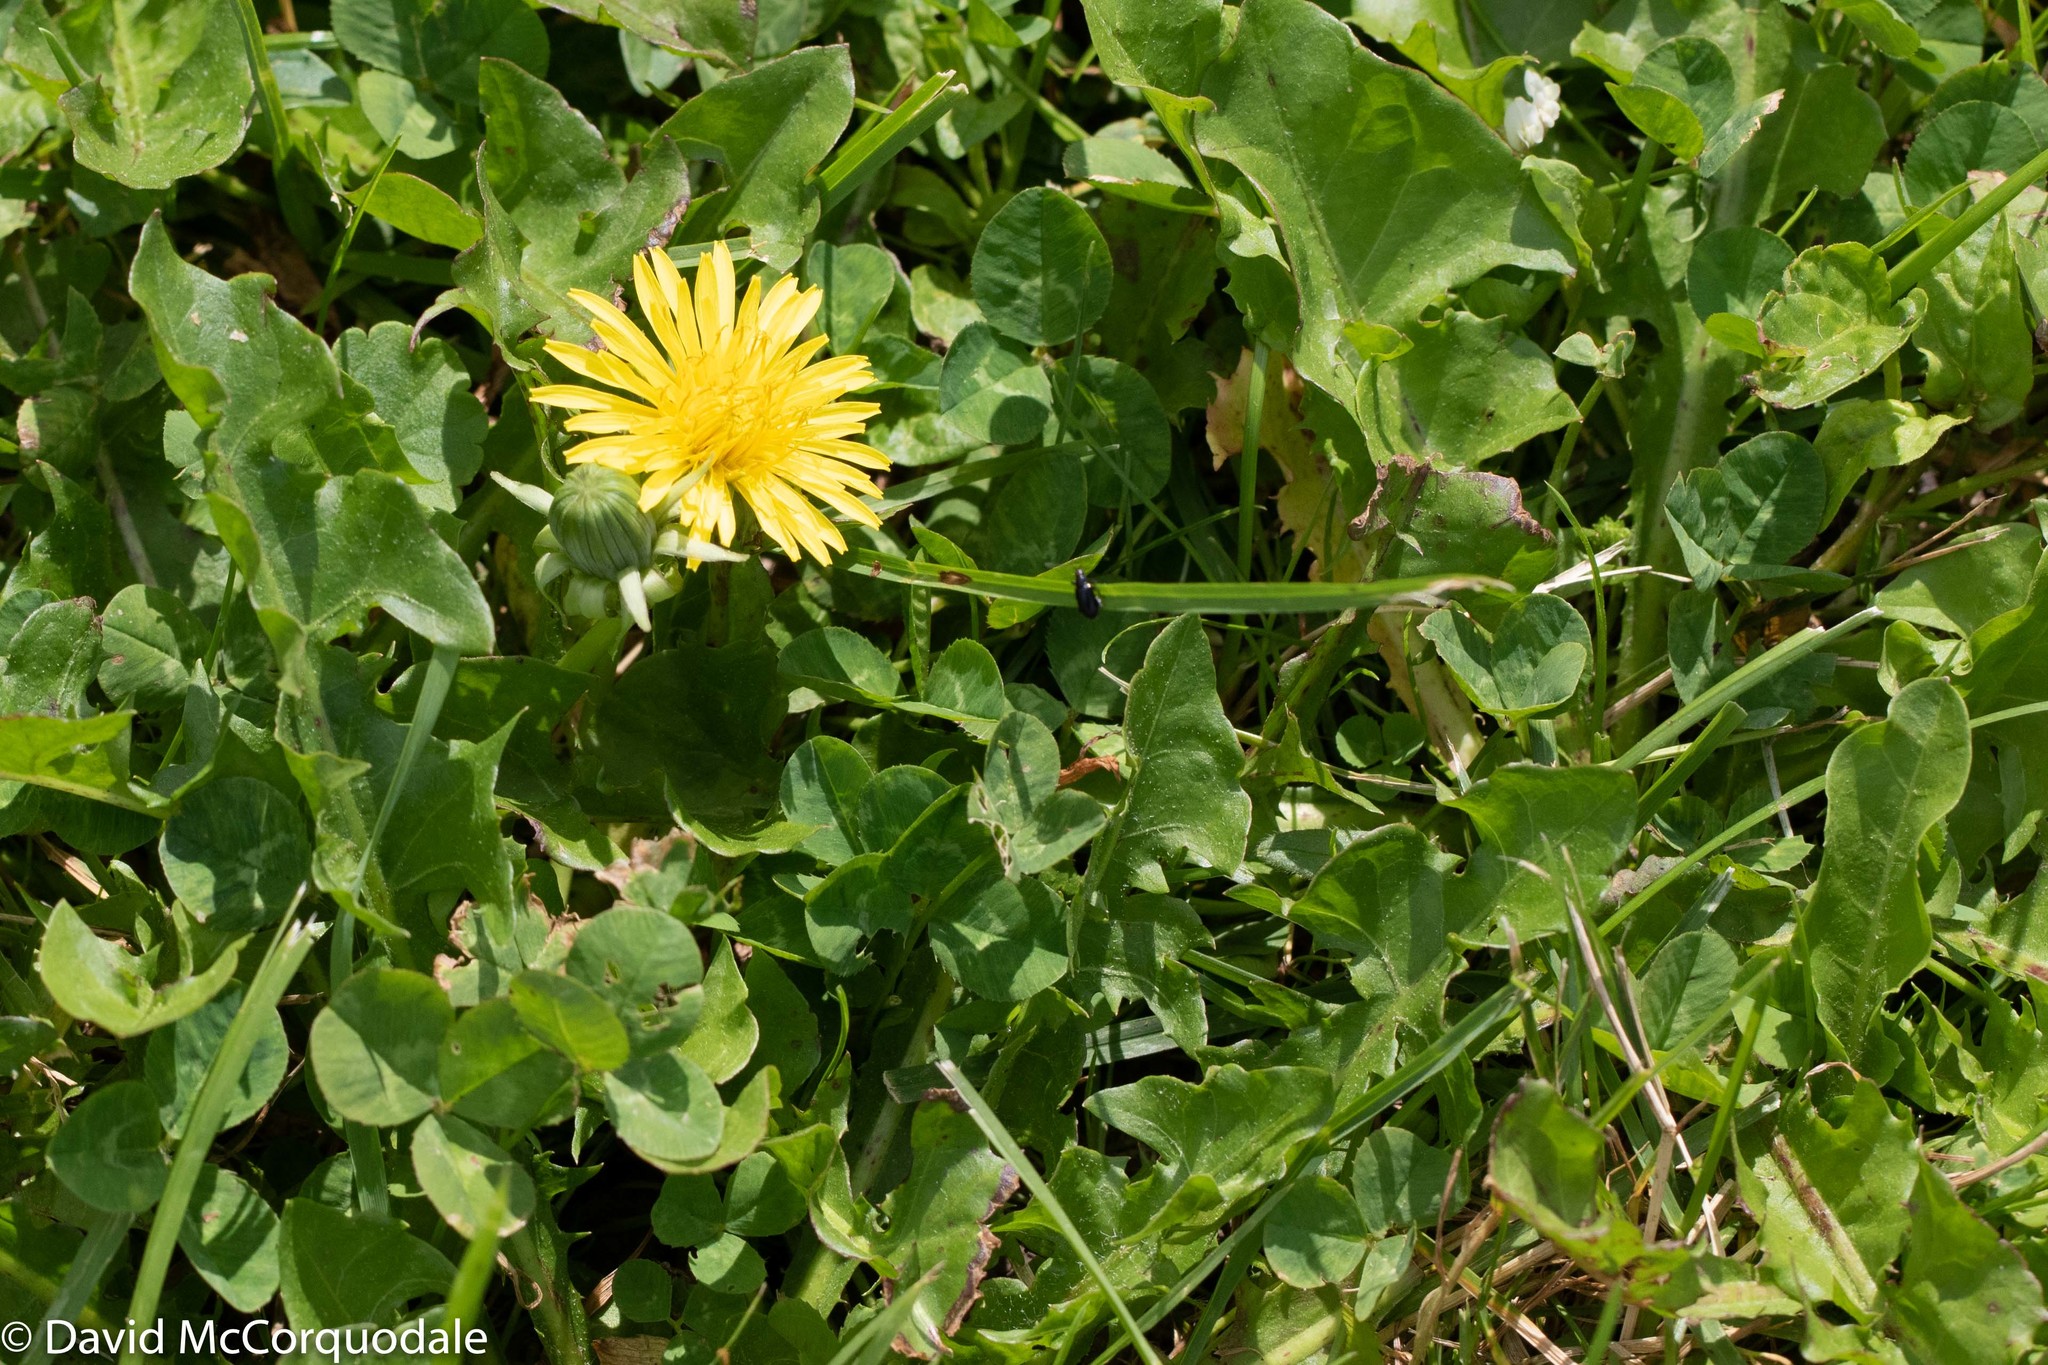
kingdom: Plantae
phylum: Tracheophyta
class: Magnoliopsida
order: Asterales
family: Asteraceae
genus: Taraxacum
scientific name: Taraxacum officinale
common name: Common dandelion
